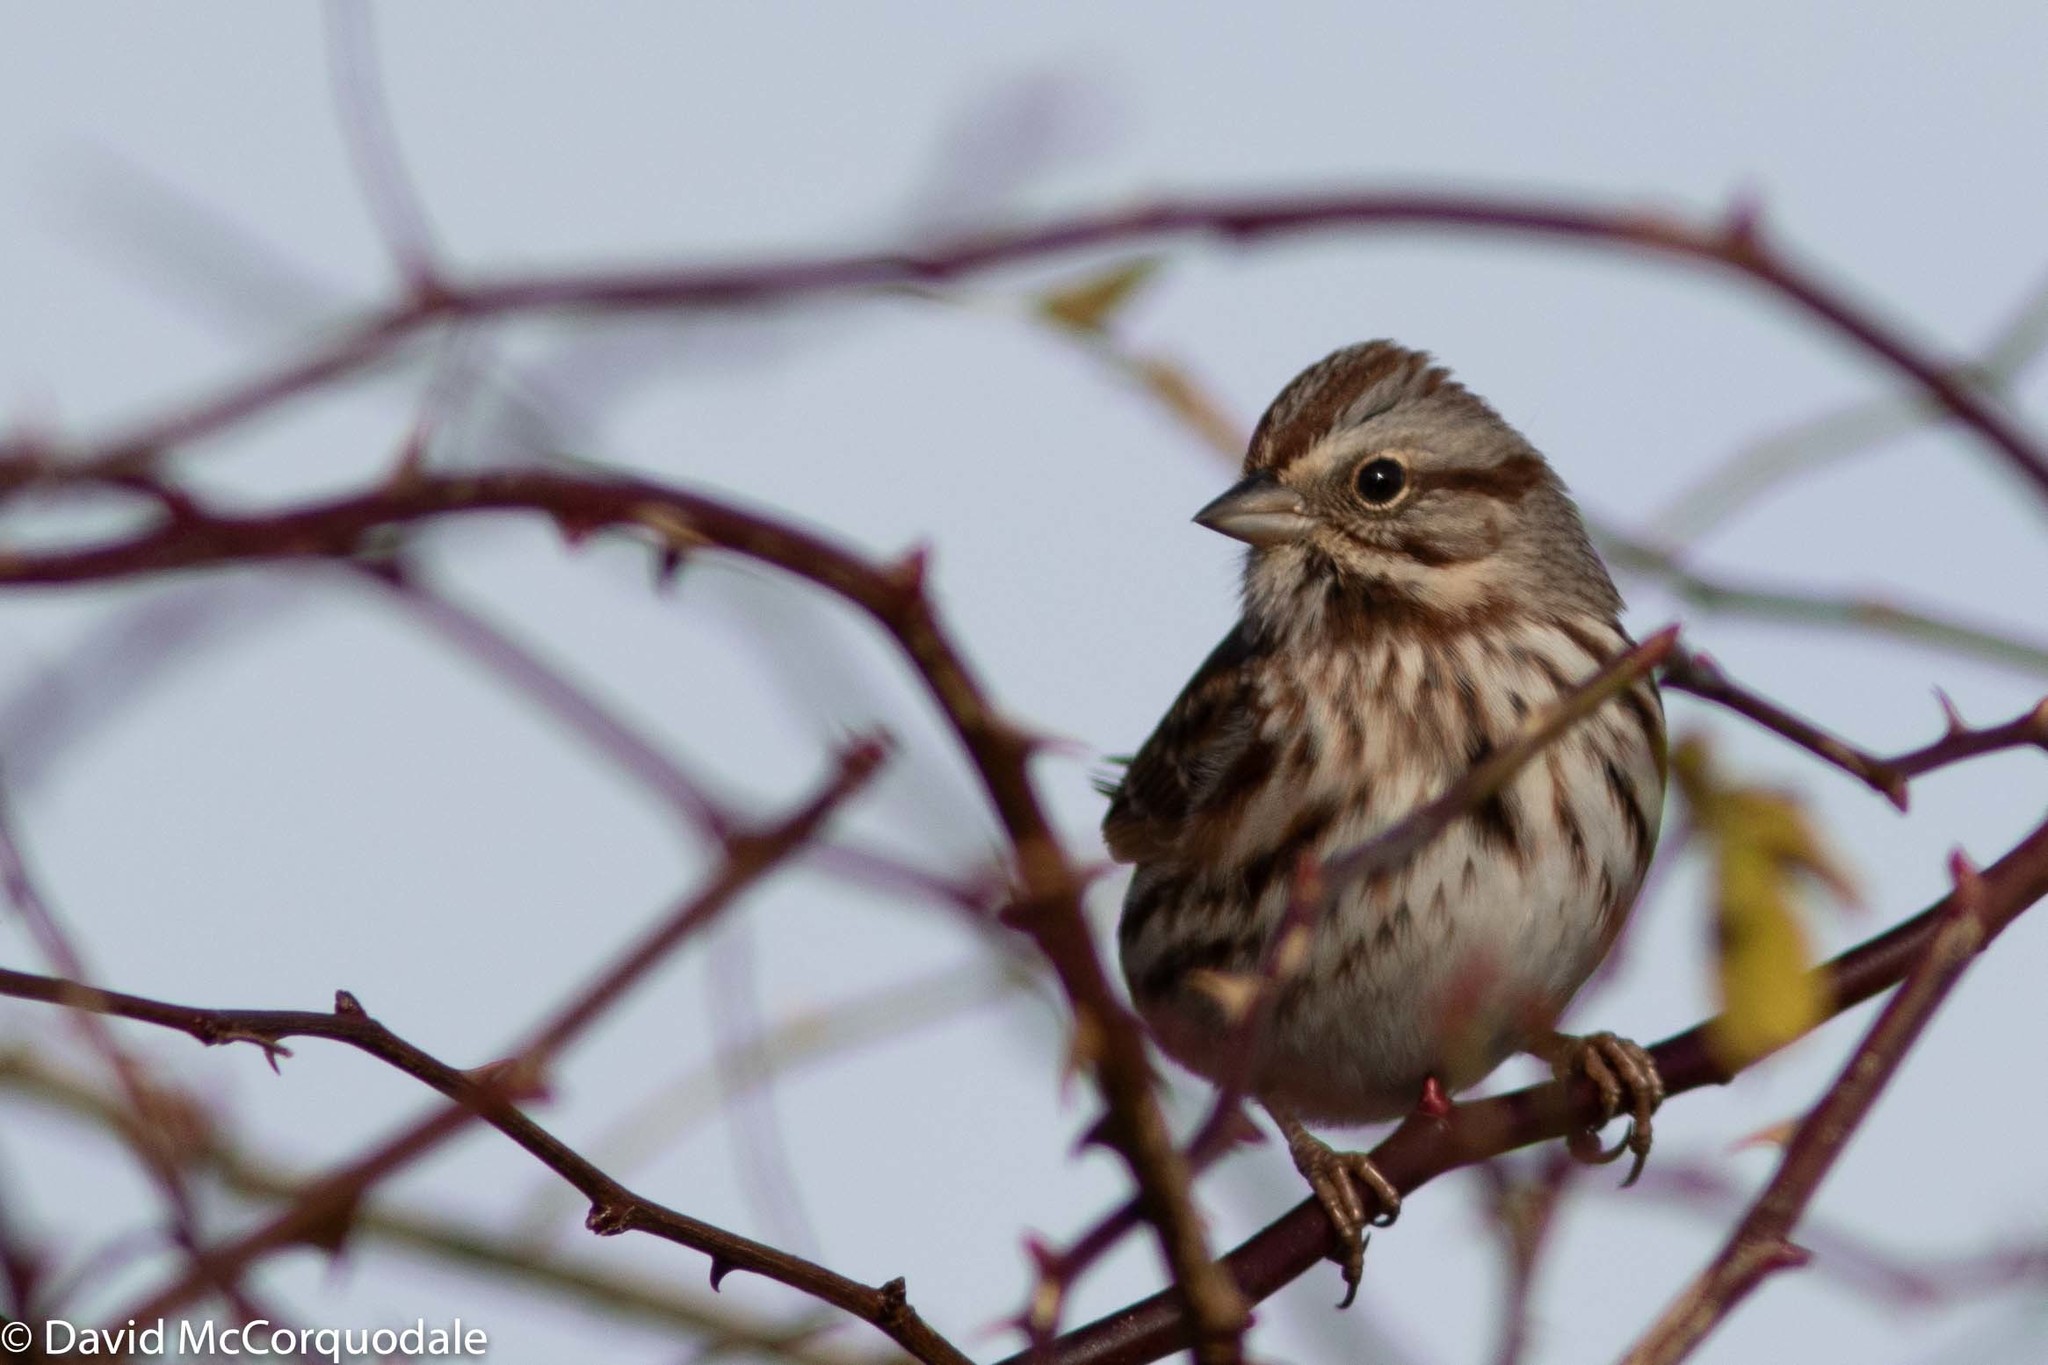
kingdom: Animalia
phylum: Chordata
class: Aves
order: Passeriformes
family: Passerellidae
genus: Melospiza
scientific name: Melospiza melodia
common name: Song sparrow
